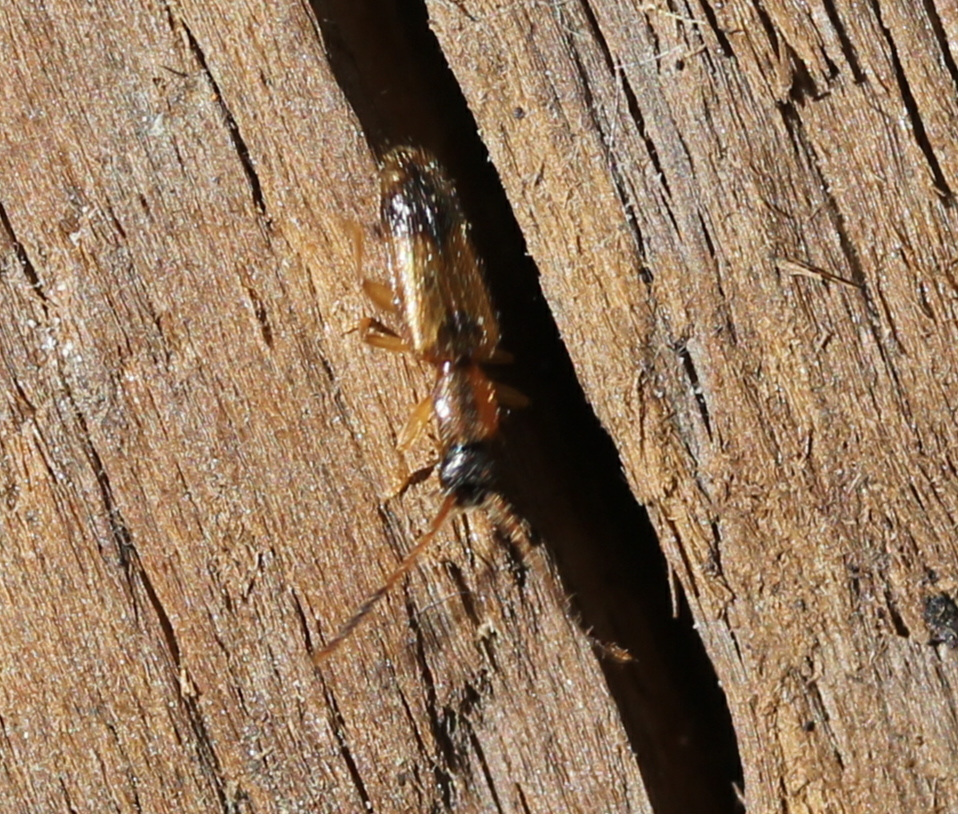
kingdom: Animalia
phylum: Arthropoda
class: Insecta
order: Coleoptera
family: Silvanidae
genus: Telephanus
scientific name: Telephanus velox
